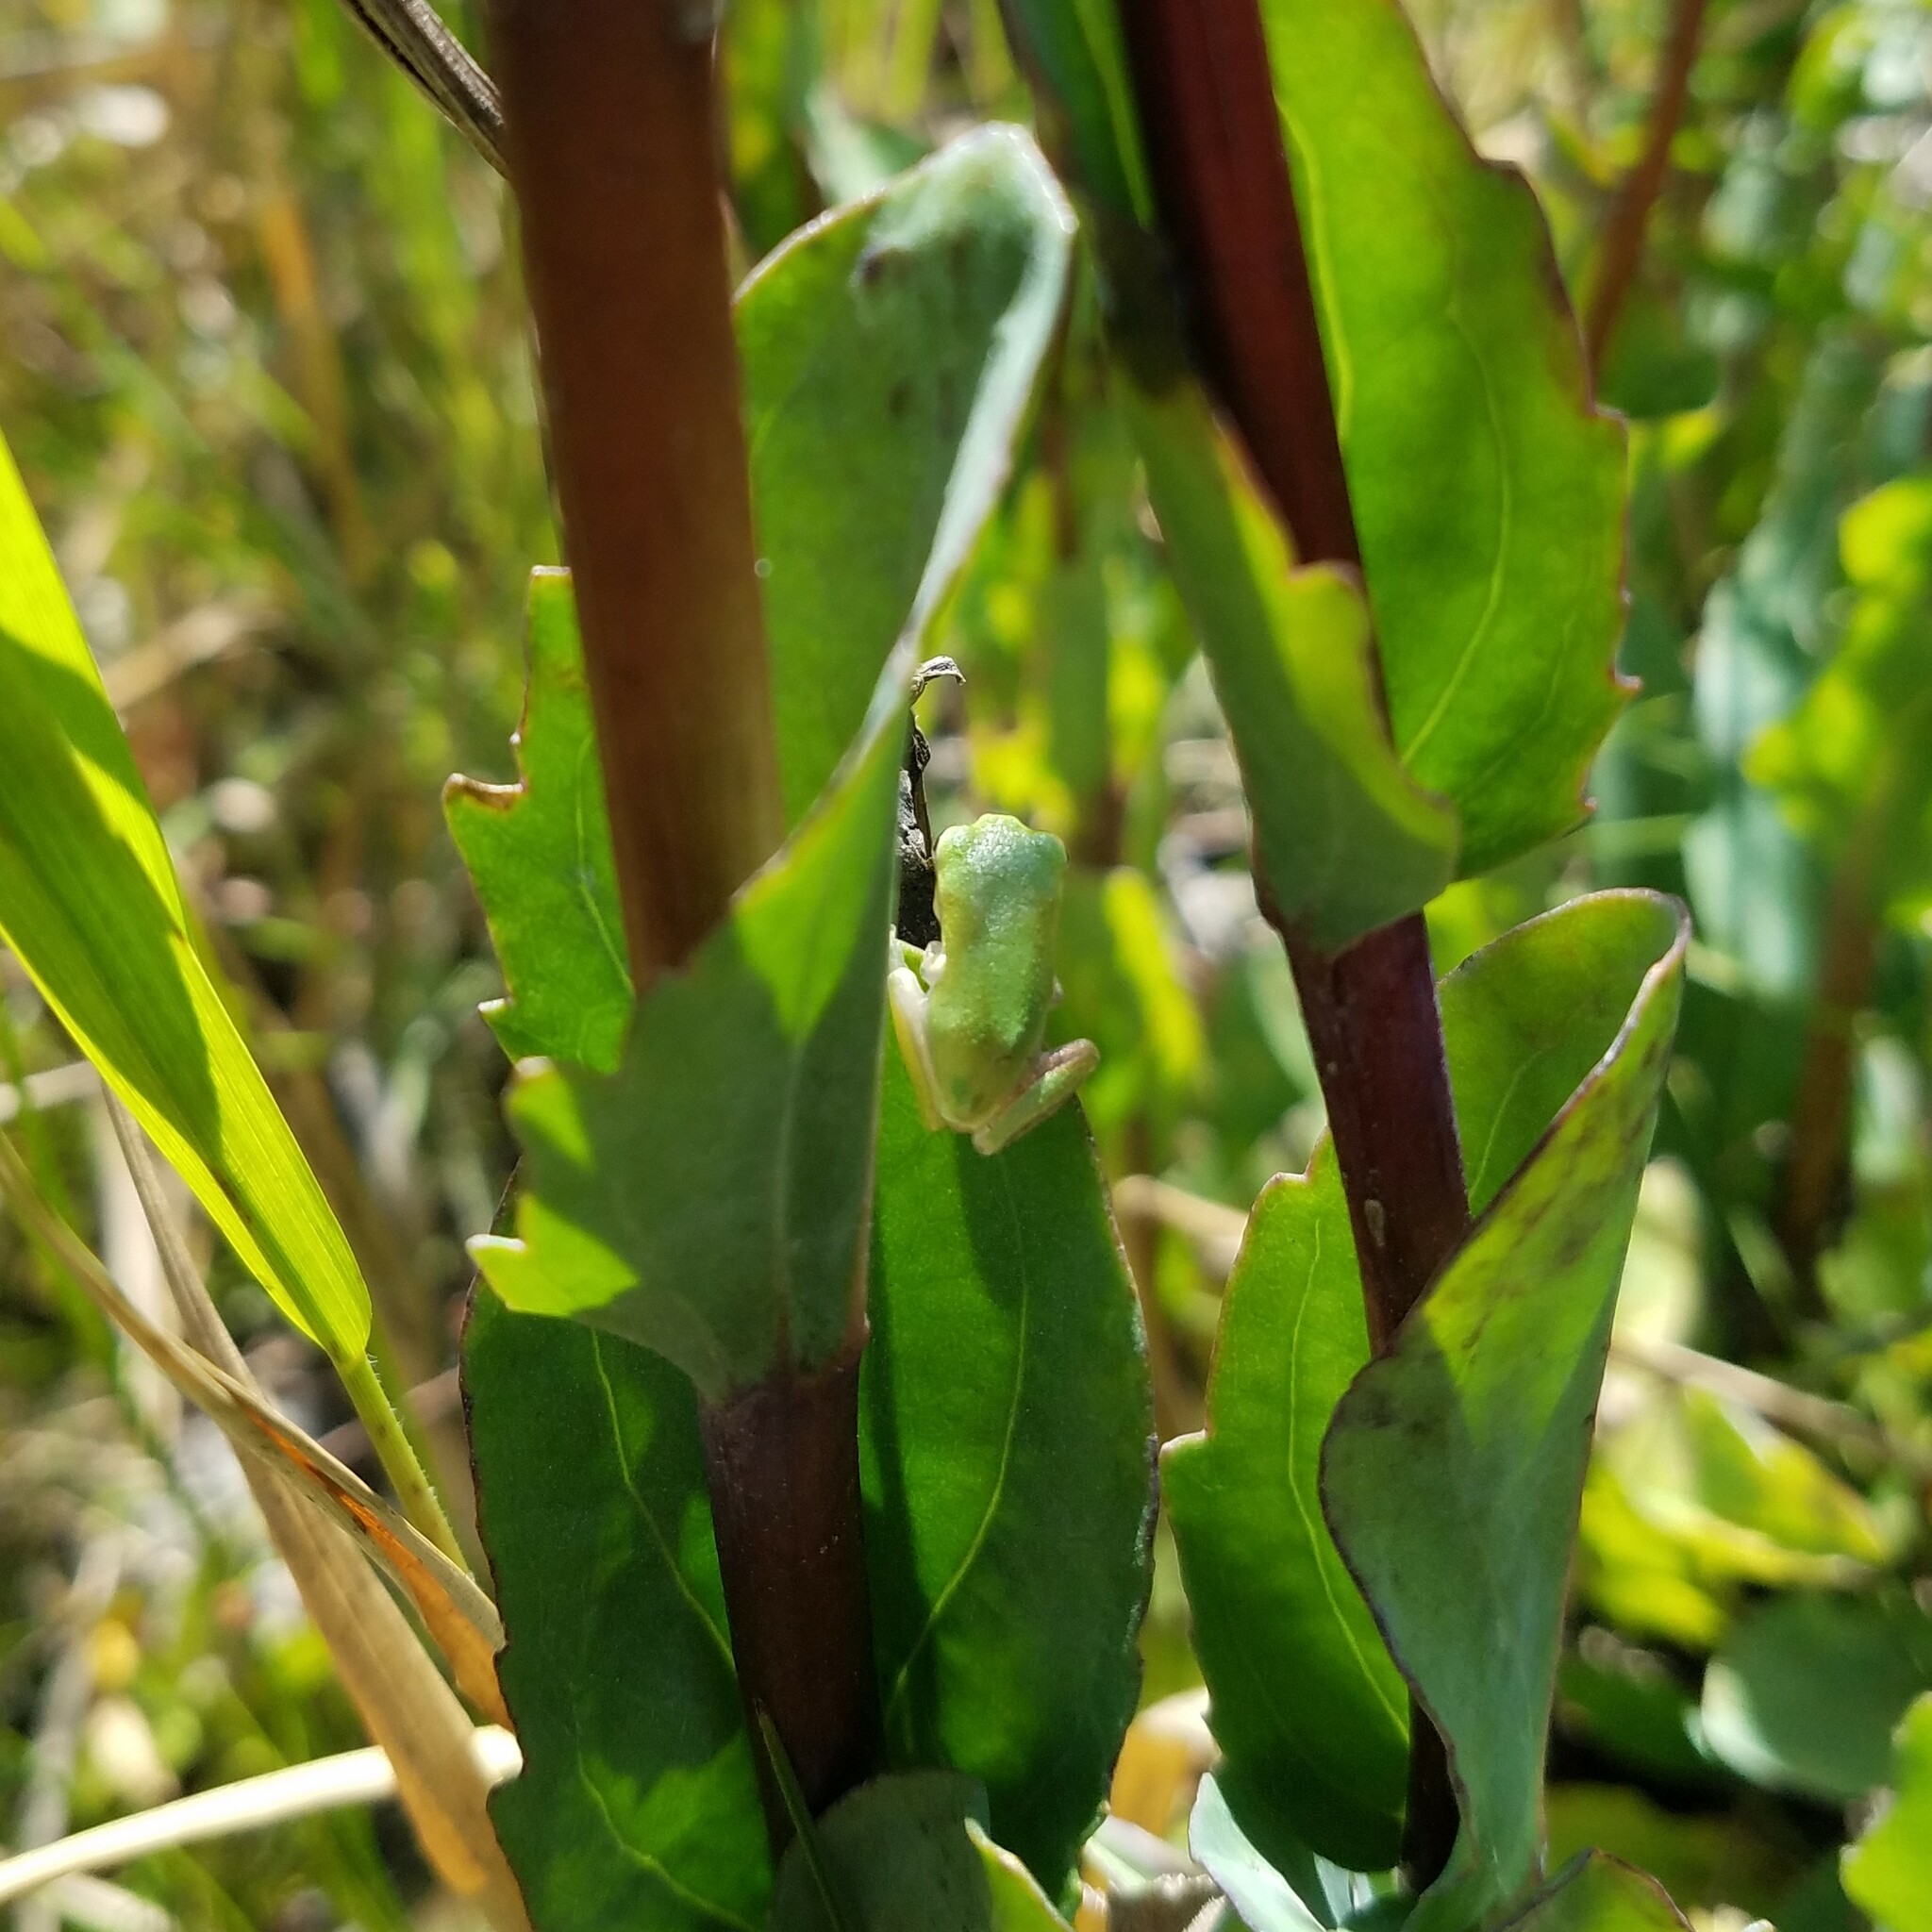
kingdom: Animalia
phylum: Chordata
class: Amphibia
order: Anura
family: Hylidae
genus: Hyla
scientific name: Hyla
